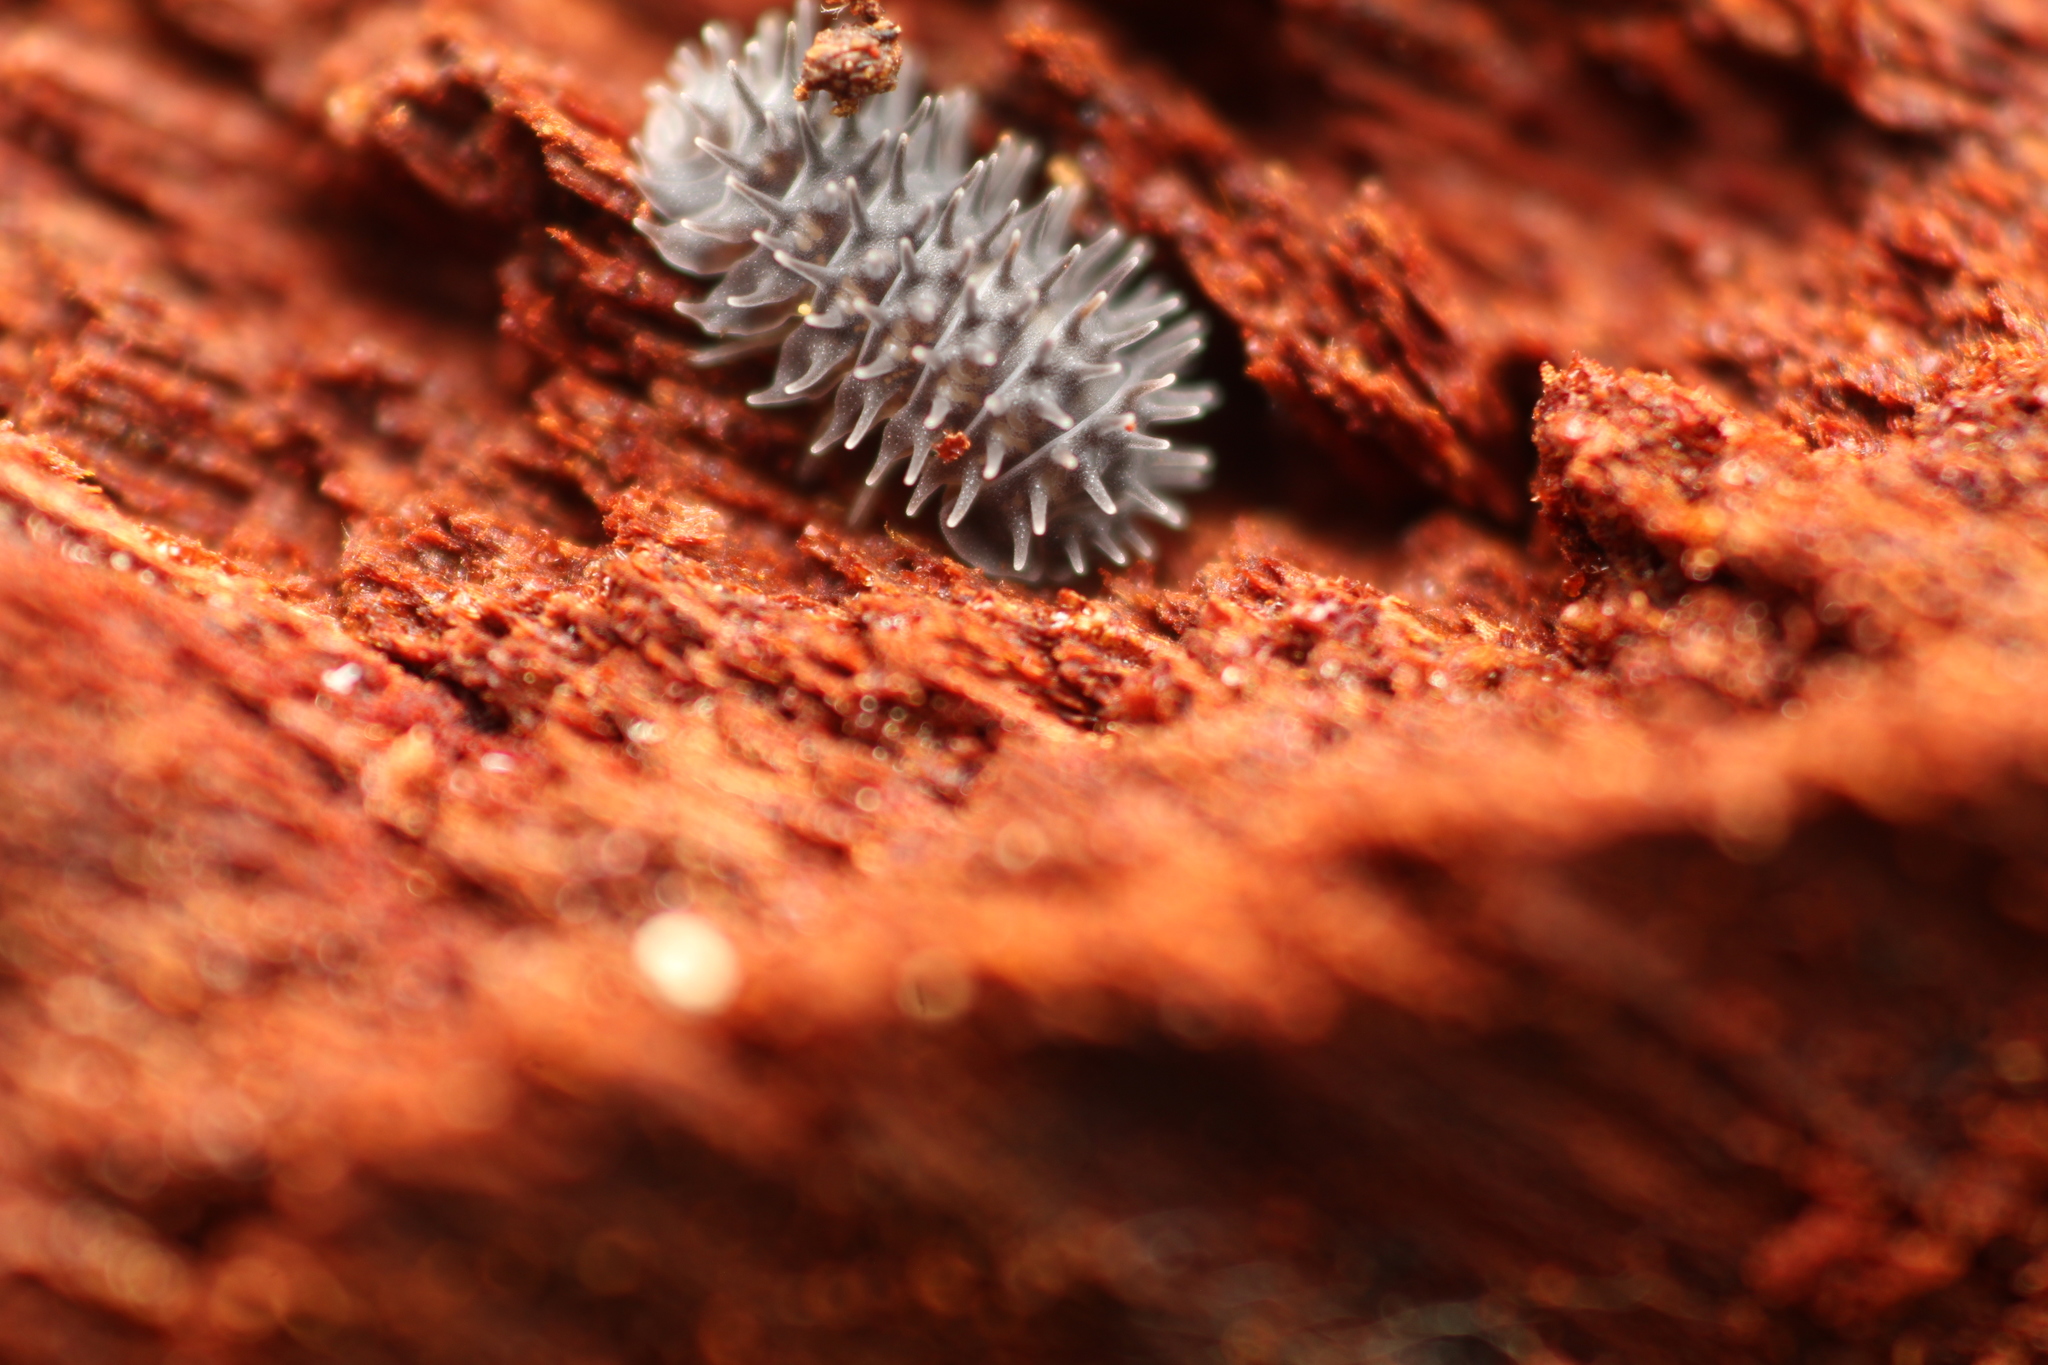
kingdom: Animalia
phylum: Arthropoda
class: Malacostraca
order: Isopoda
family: Armadillidae
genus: Pseudolaureola
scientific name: Pseudolaureola wilsmorei
